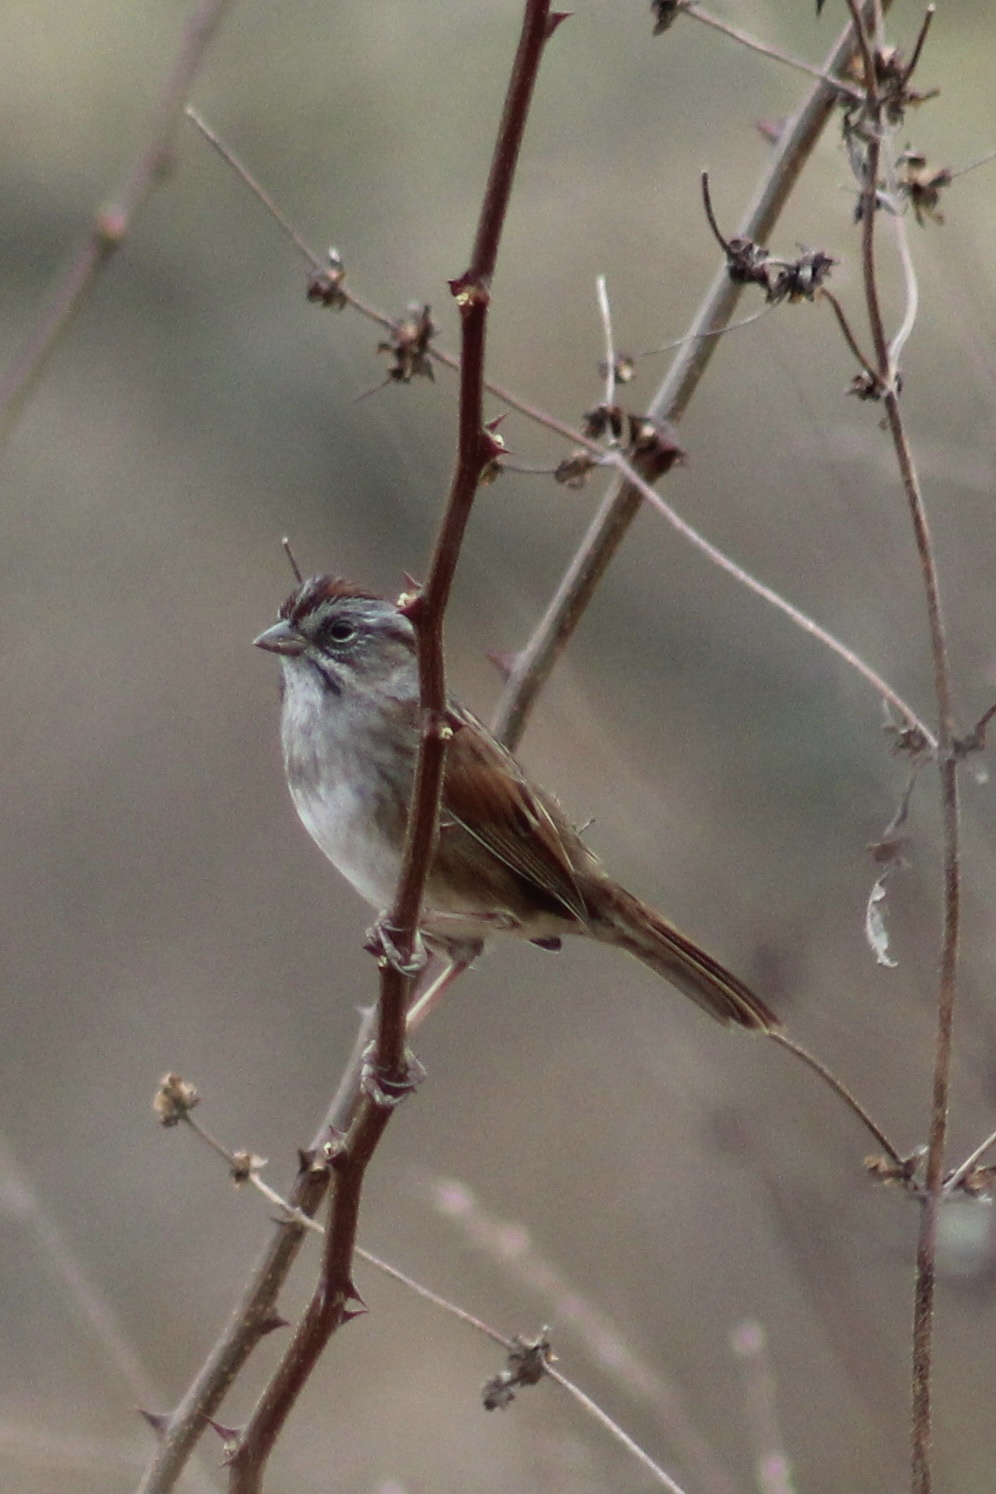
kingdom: Animalia
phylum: Chordata
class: Aves
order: Passeriformes
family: Passerellidae
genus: Melospiza
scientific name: Melospiza georgiana
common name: Swamp sparrow
